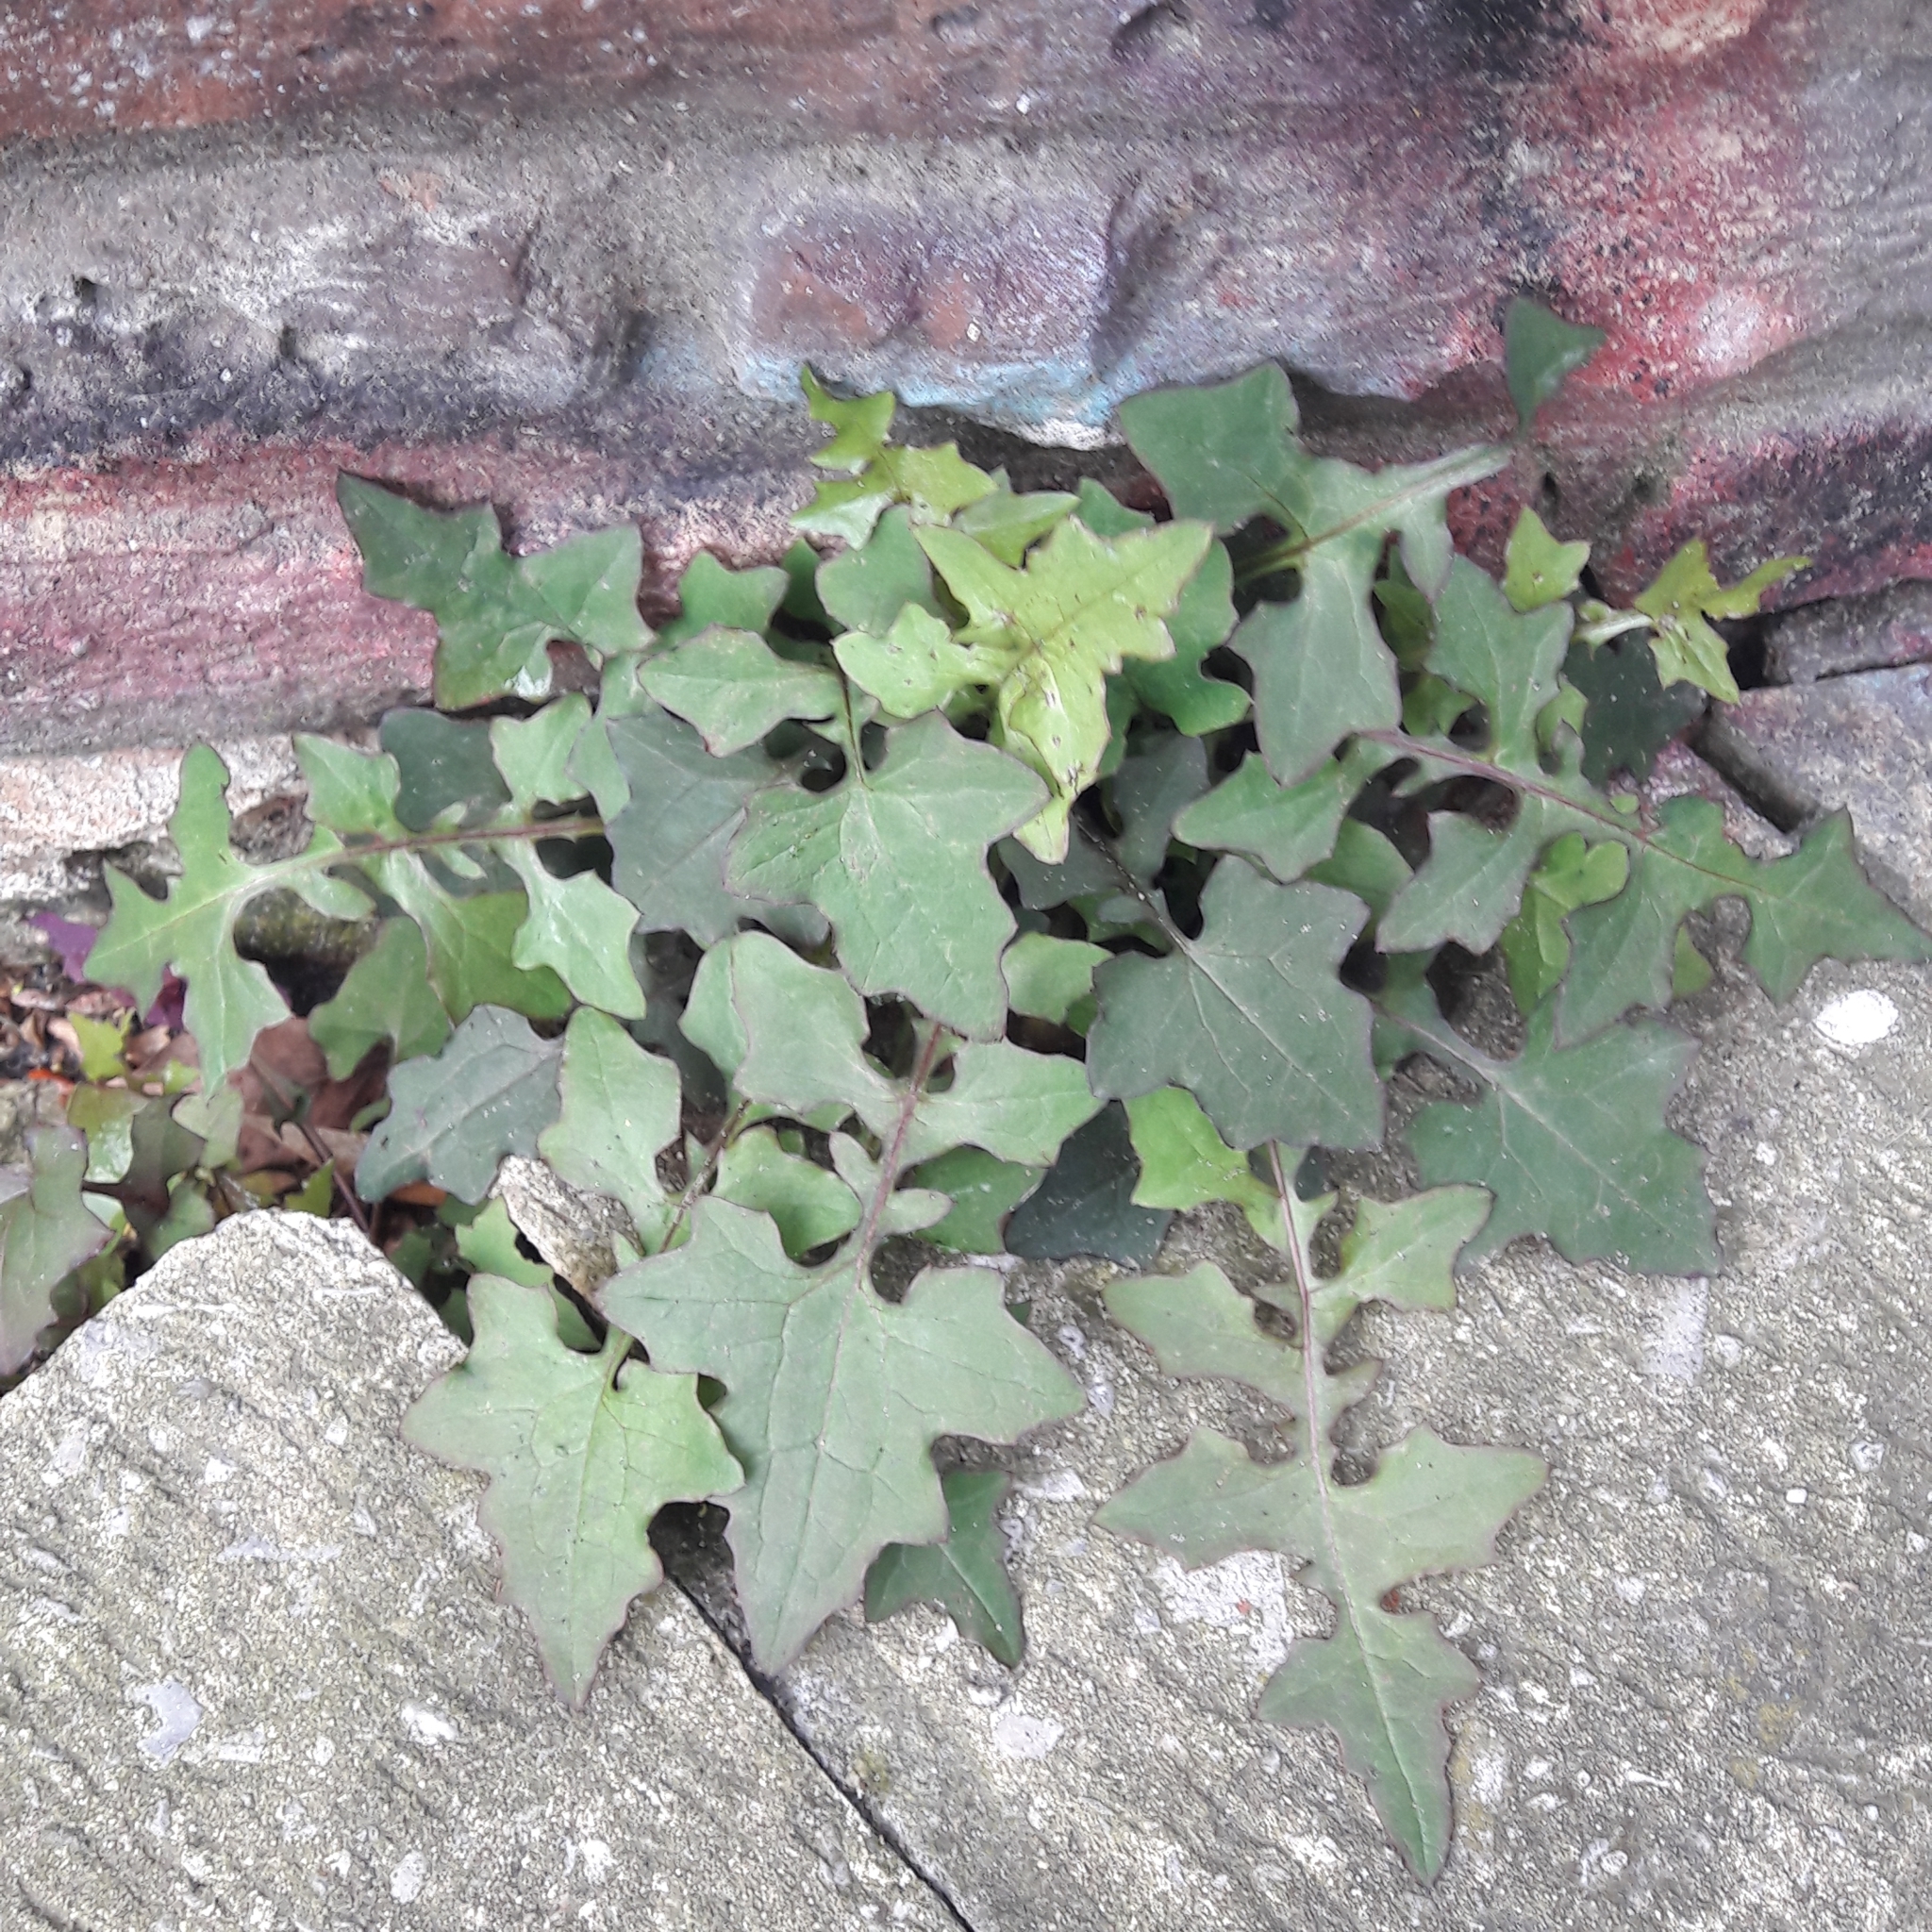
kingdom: Plantae
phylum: Tracheophyta
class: Magnoliopsida
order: Asterales
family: Asteraceae
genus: Mycelis
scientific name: Mycelis muralis
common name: Wall lettuce
